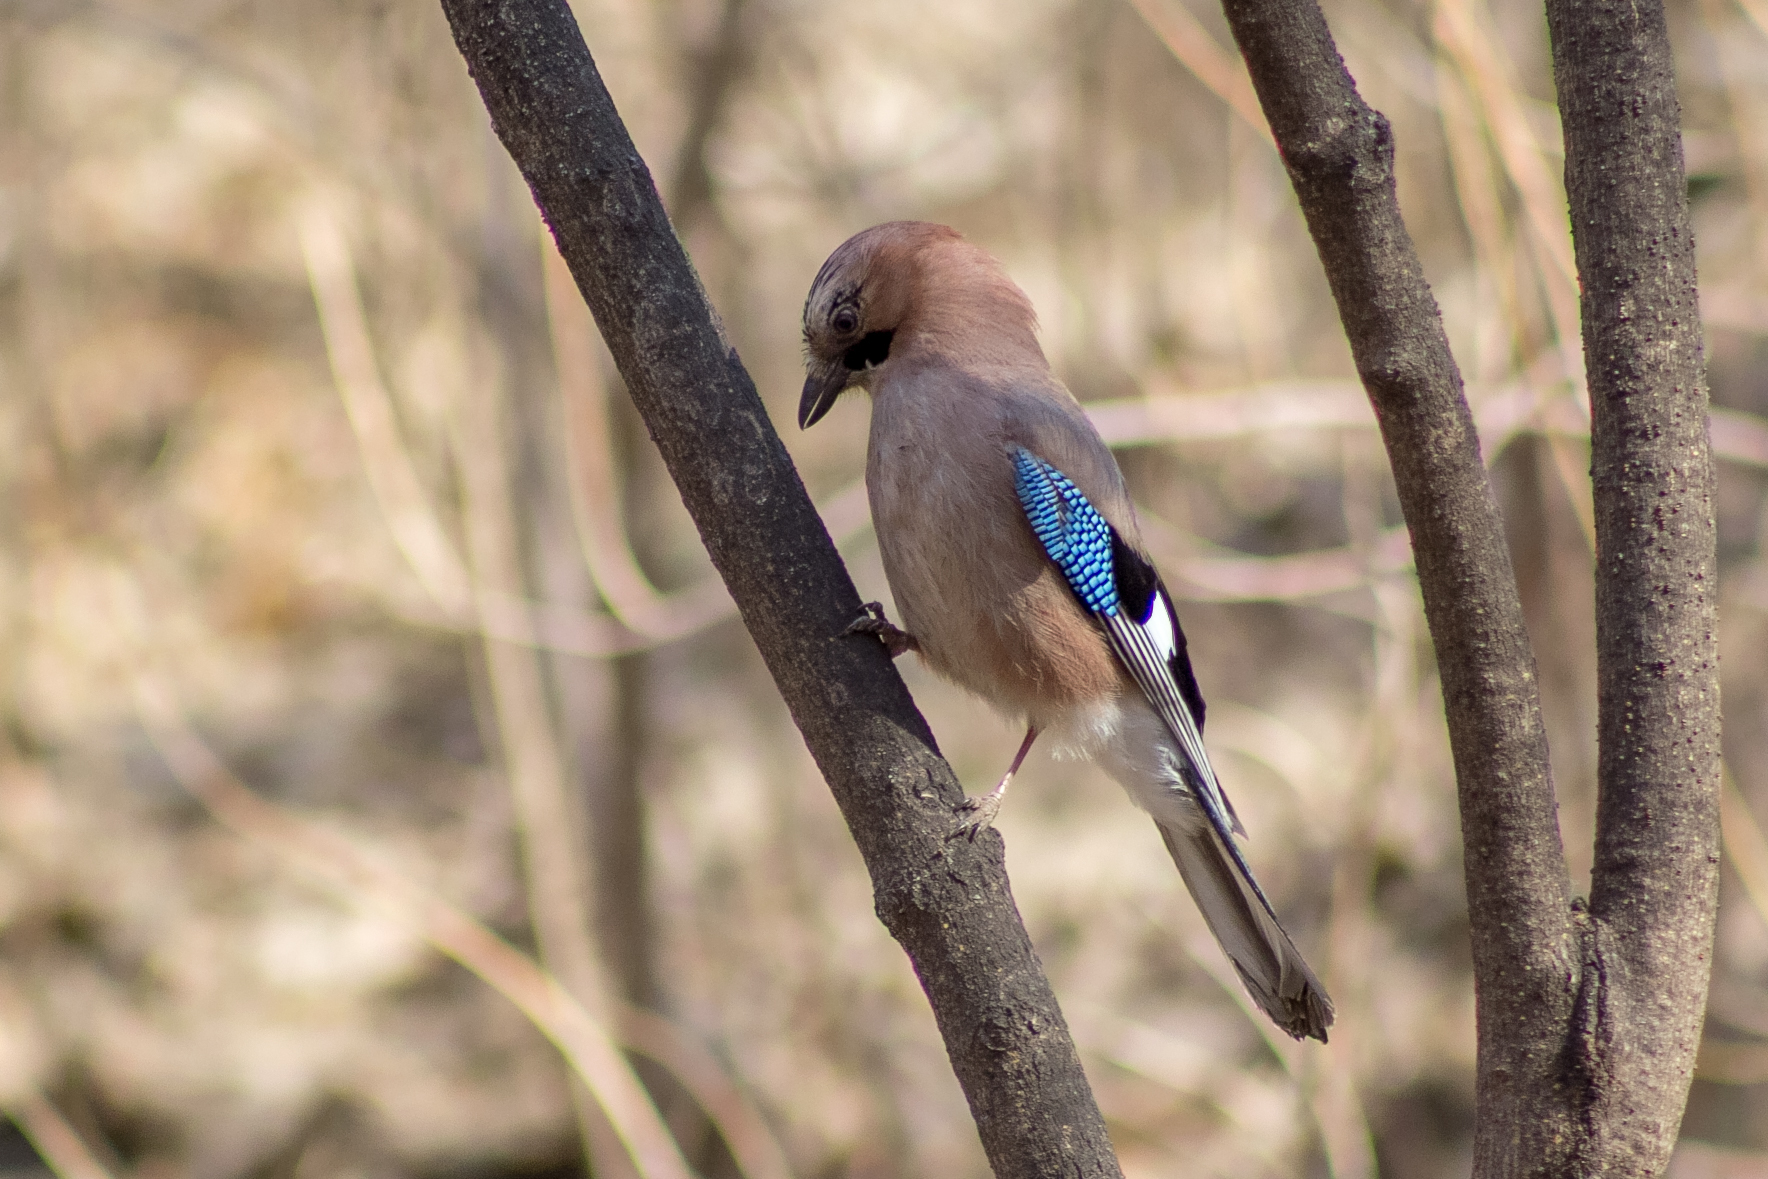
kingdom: Animalia
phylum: Chordata
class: Aves
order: Passeriformes
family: Corvidae
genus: Garrulus
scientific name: Garrulus glandarius
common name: Eurasian jay
